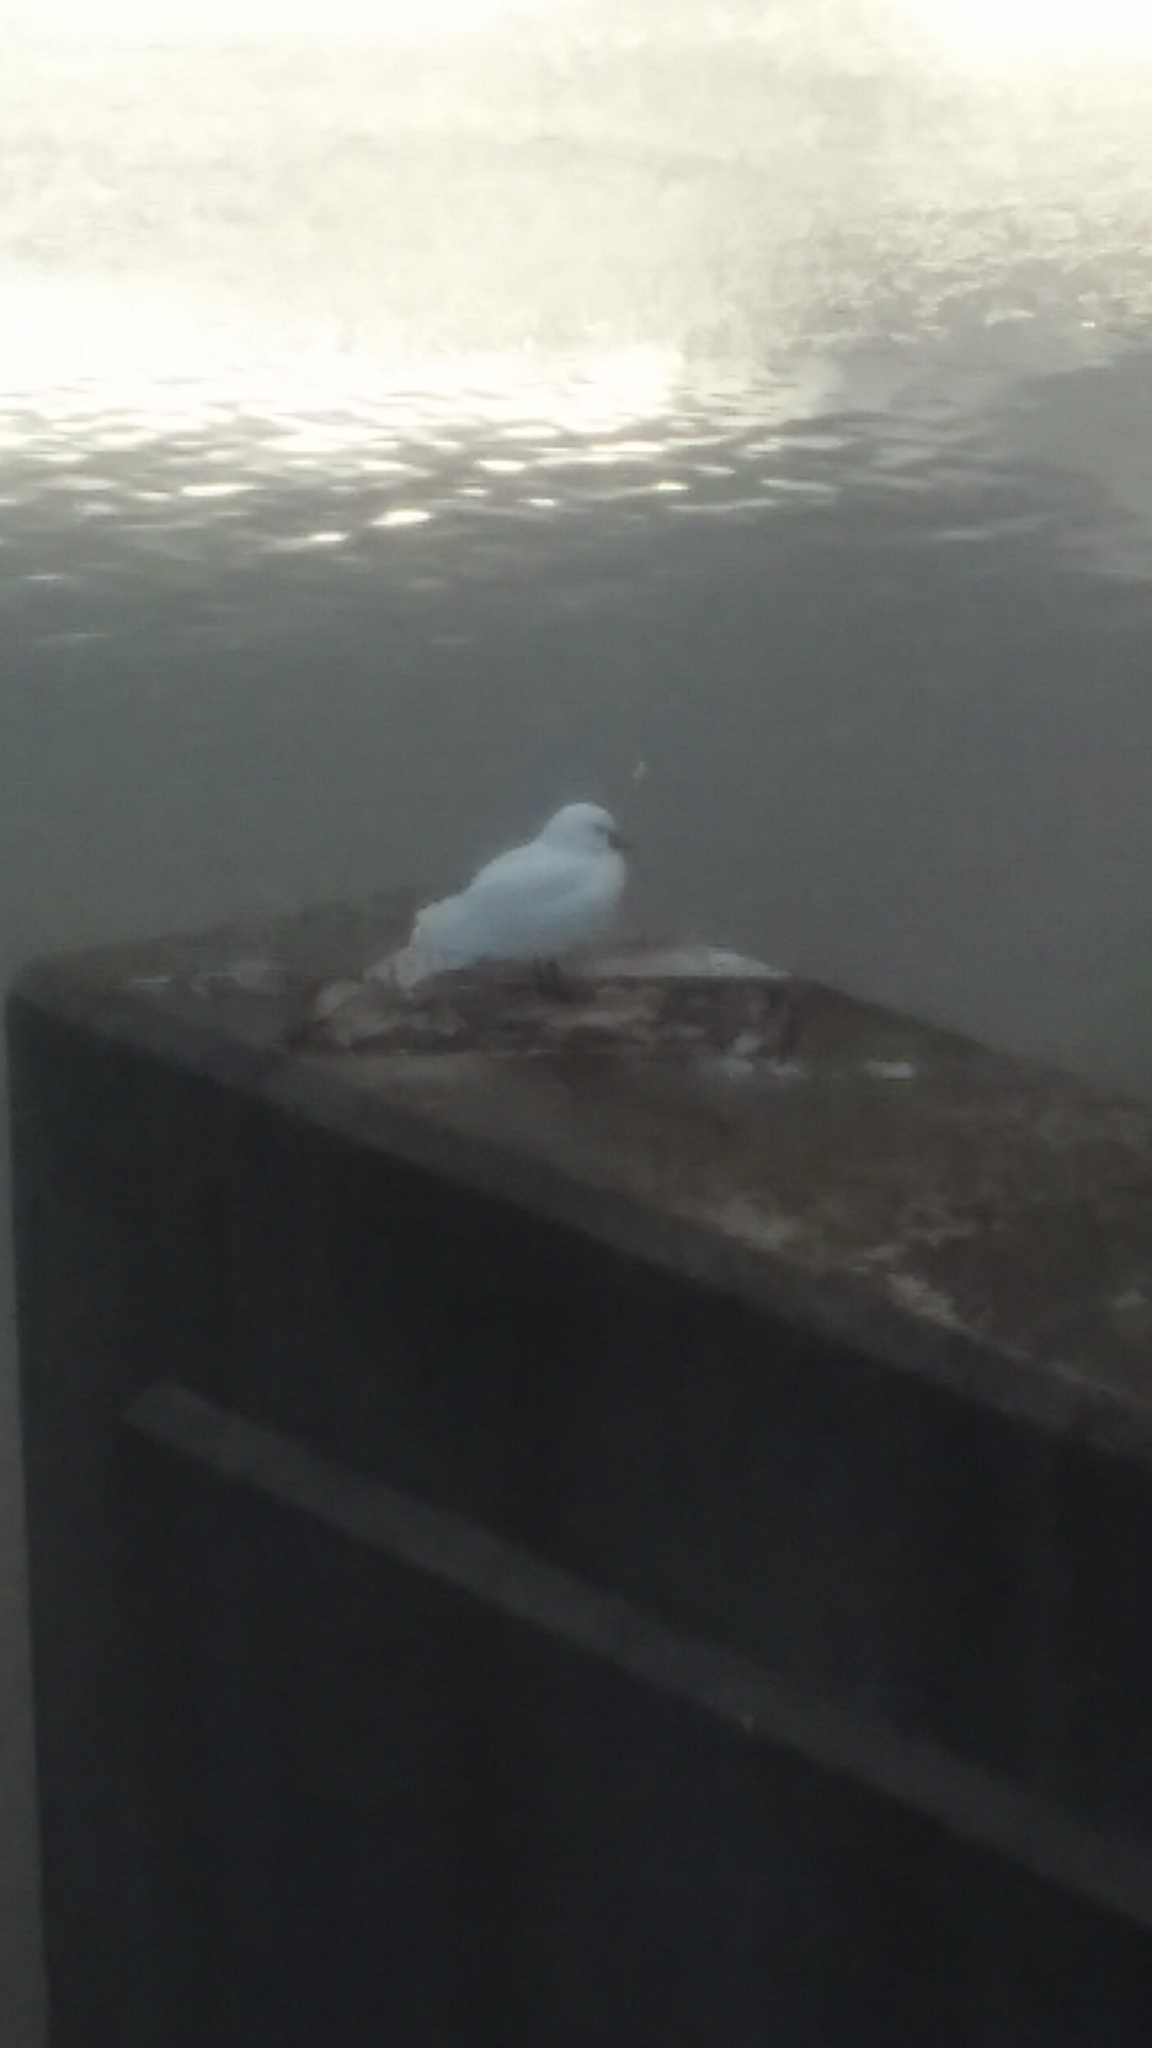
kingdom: Animalia
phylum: Chordata
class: Aves
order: Charadriiformes
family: Laridae
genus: Pagophila
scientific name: Pagophila eburnea
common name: Ivory gull
